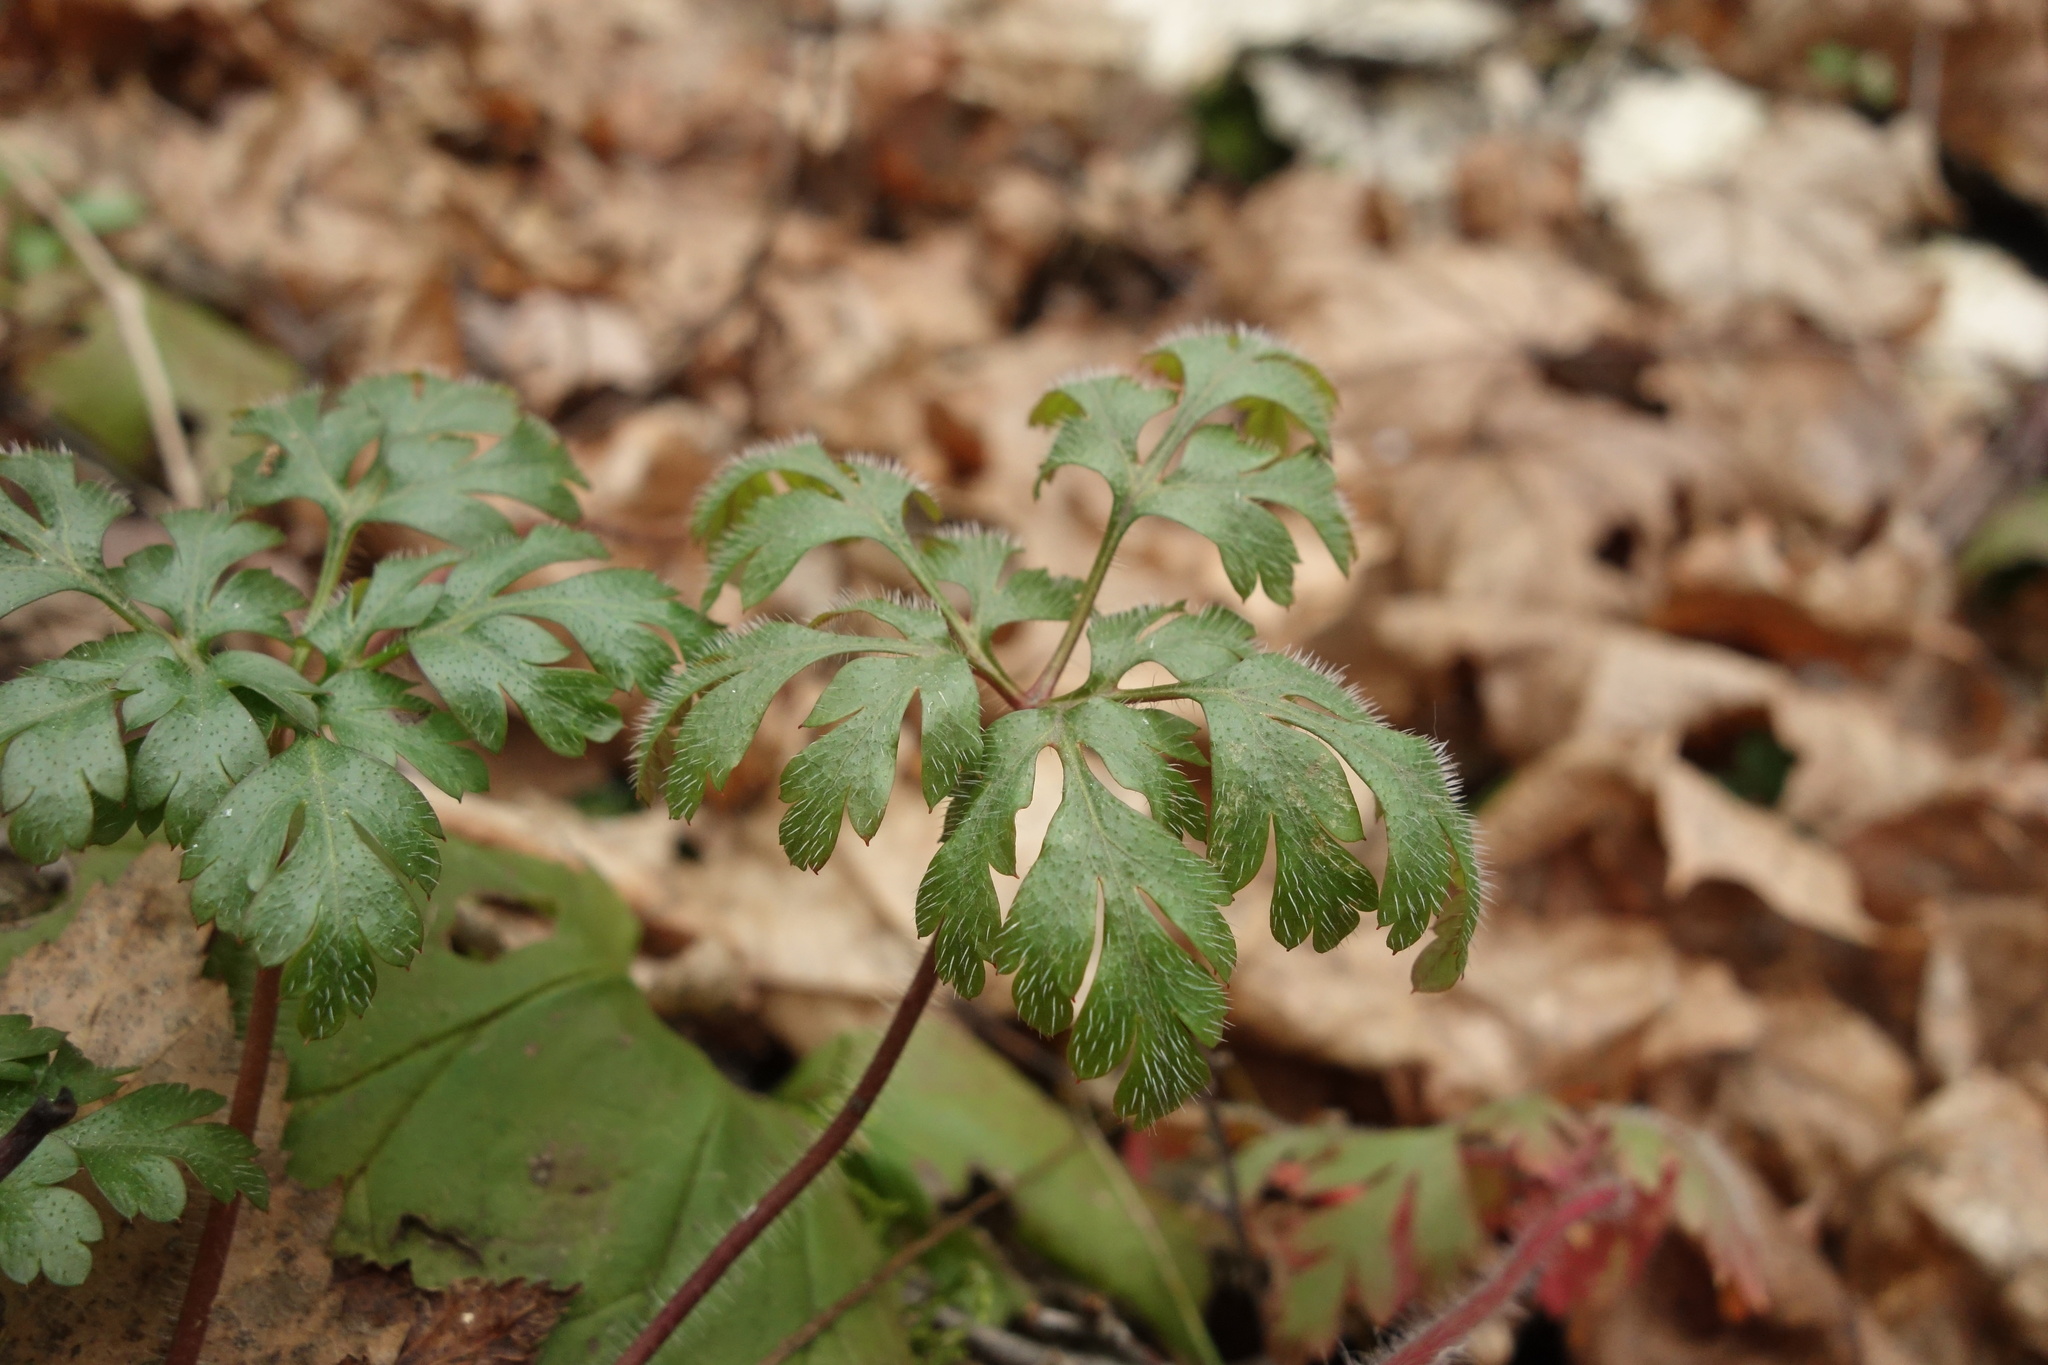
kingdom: Plantae
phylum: Tracheophyta
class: Magnoliopsida
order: Geraniales
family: Geraniaceae
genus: Geranium
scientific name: Geranium robertianum
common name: Herb-robert
